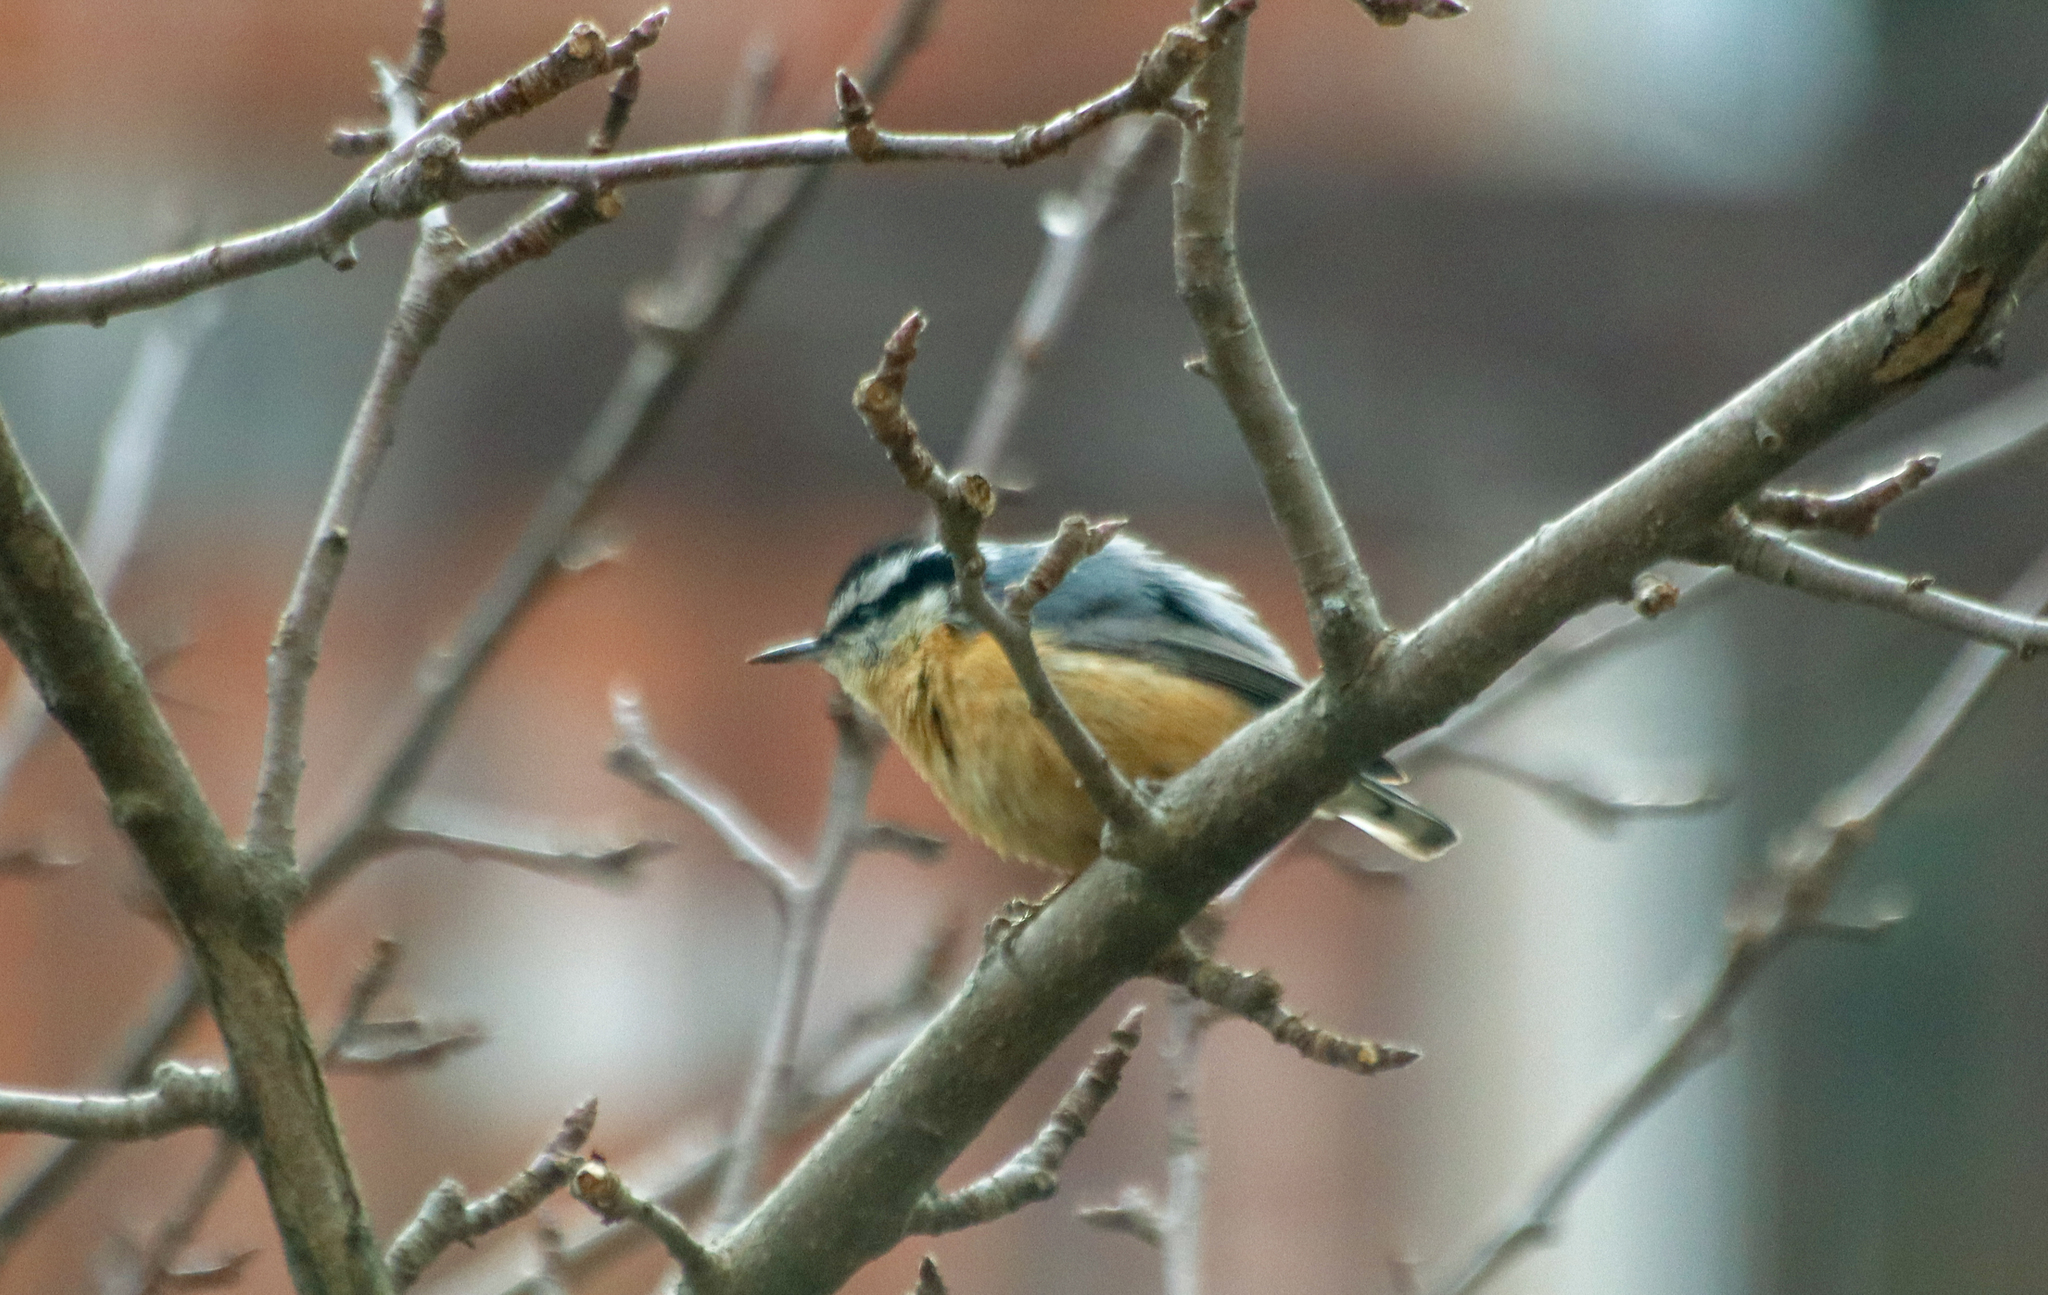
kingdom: Animalia
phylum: Chordata
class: Aves
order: Passeriformes
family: Sittidae
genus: Sitta
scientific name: Sitta canadensis
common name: Red-breasted nuthatch
